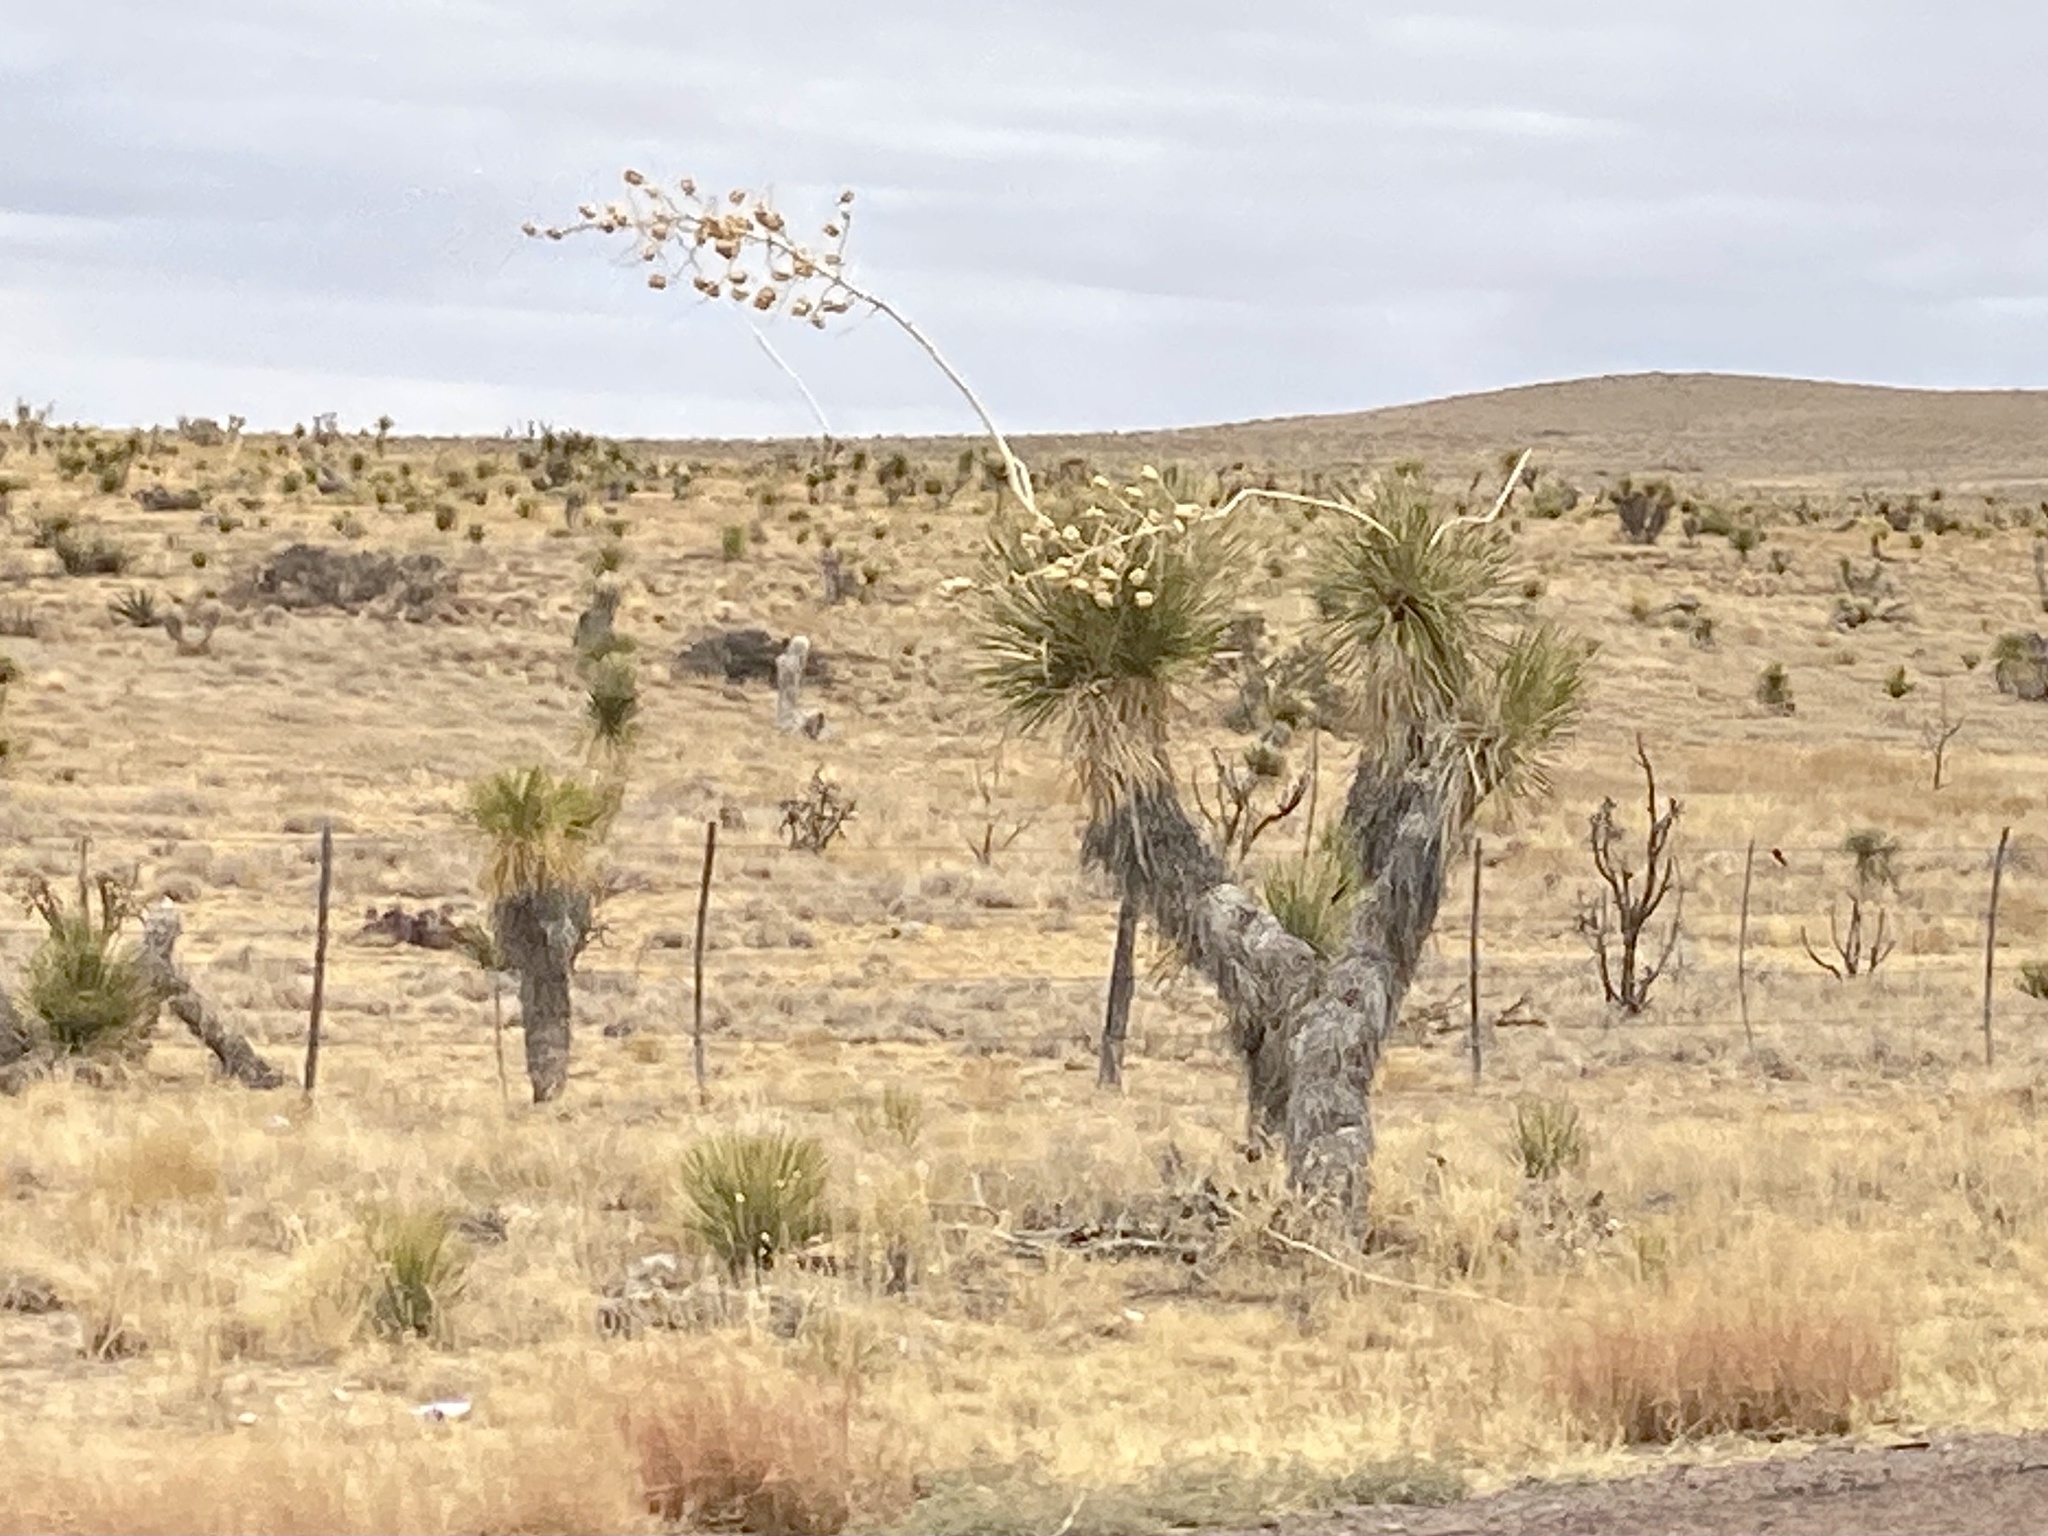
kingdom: Plantae
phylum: Tracheophyta
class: Liliopsida
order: Asparagales
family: Asparagaceae
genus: Yucca
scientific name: Yucca elata
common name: Palmella
